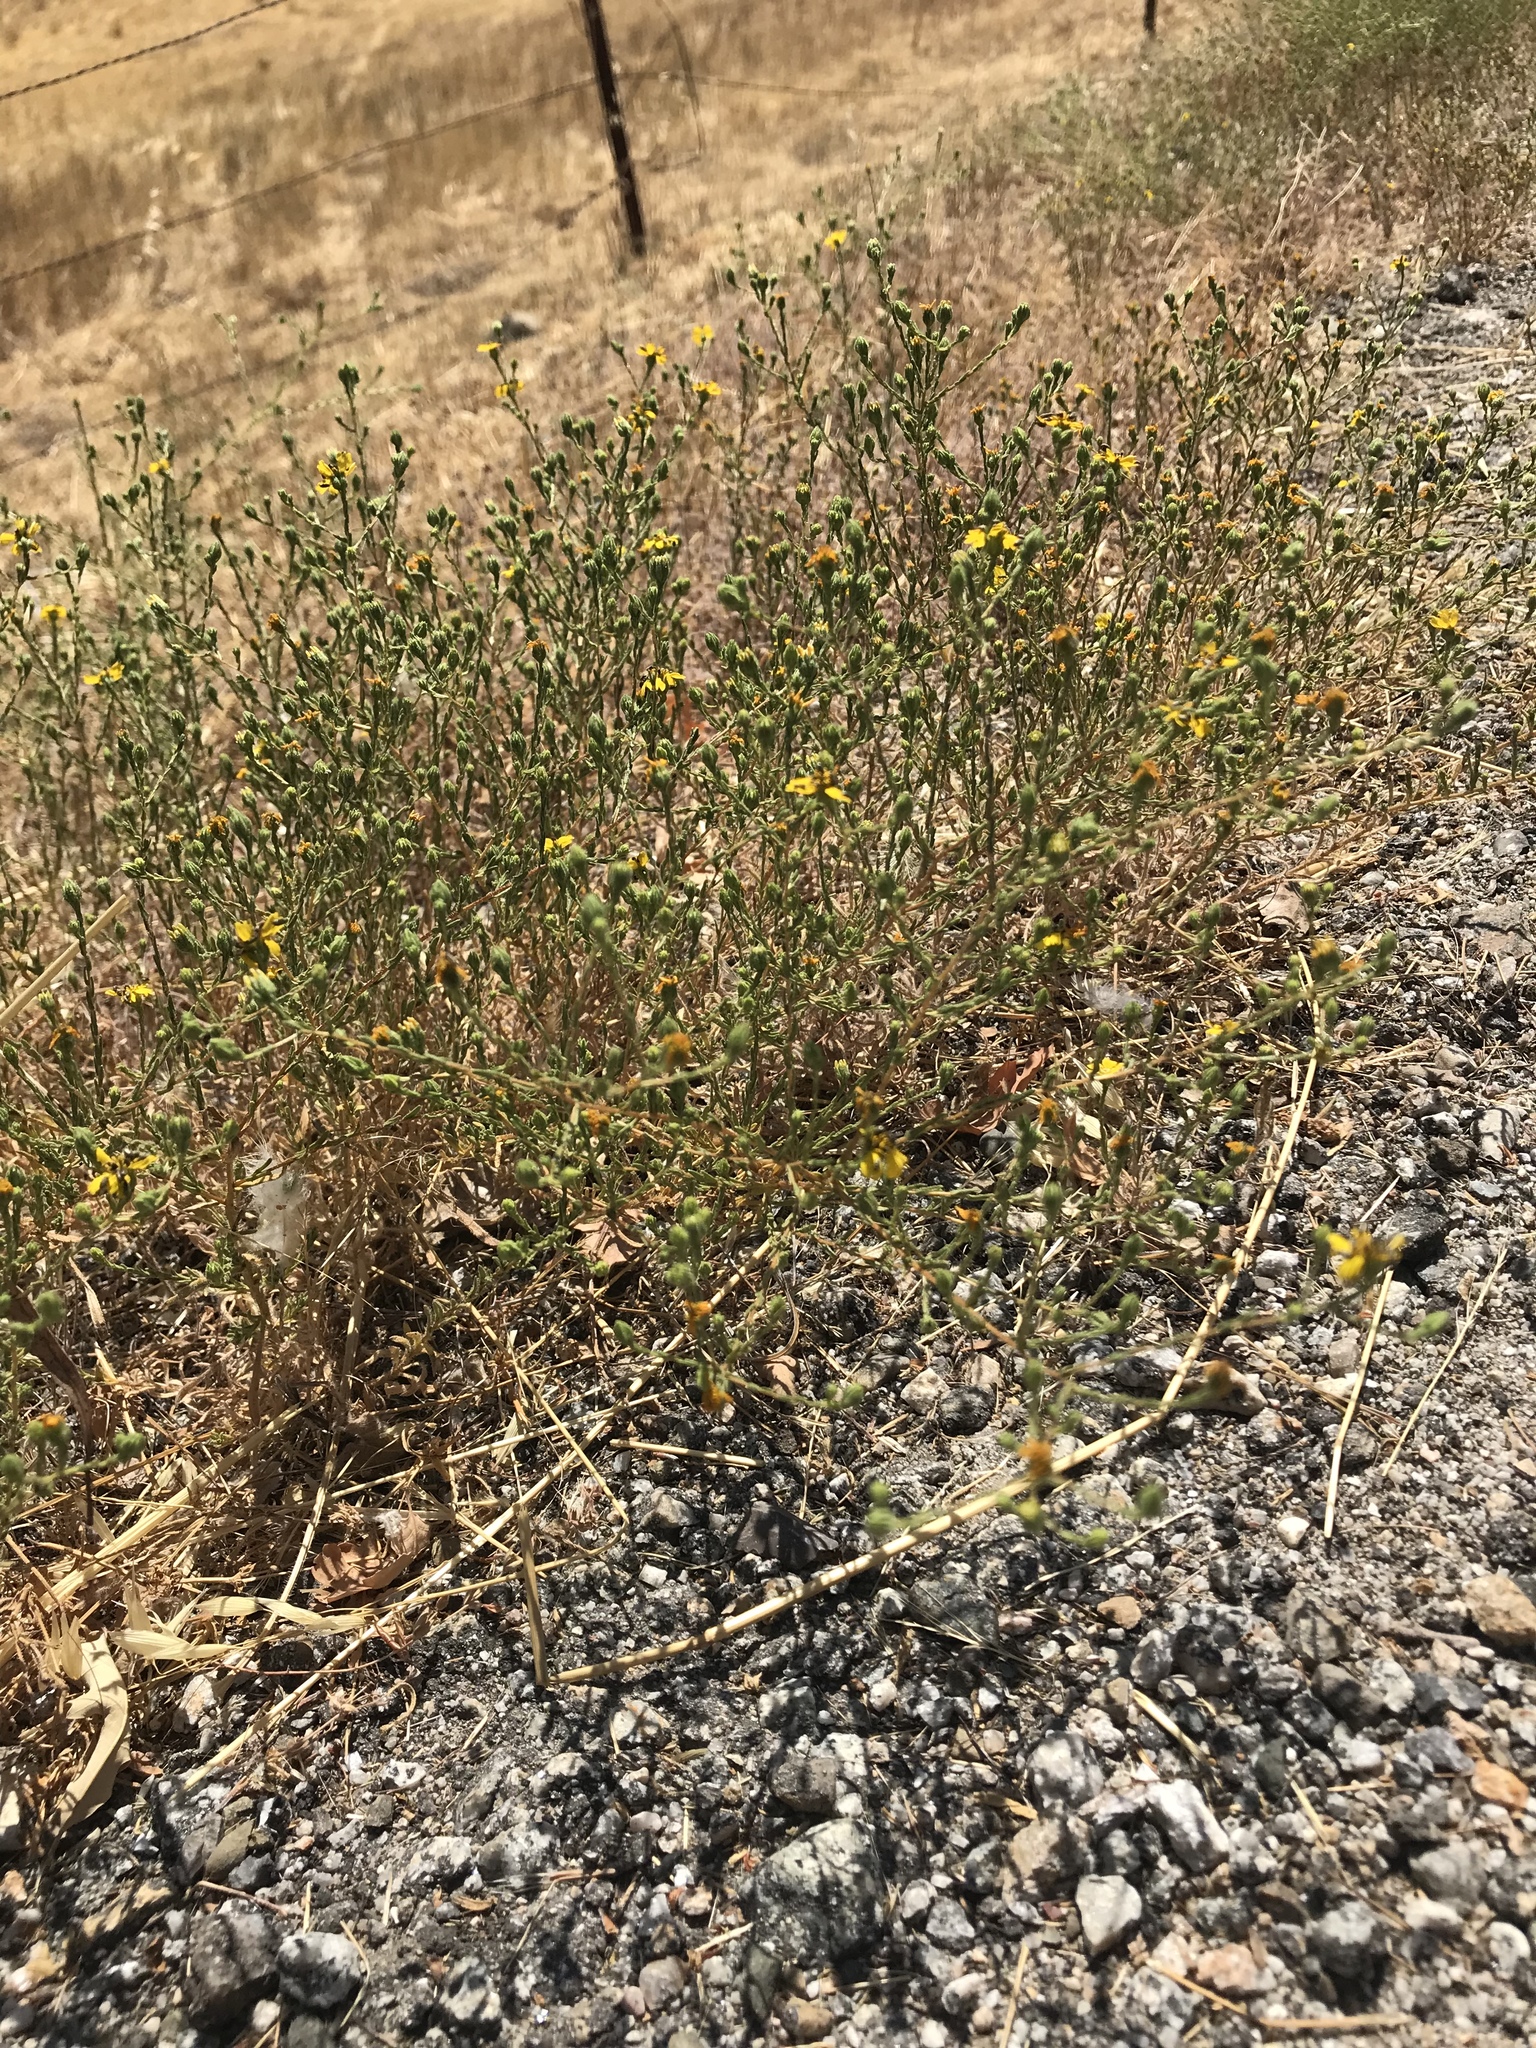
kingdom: Plantae
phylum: Tracheophyta
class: Magnoliopsida
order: Asterales
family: Asteraceae
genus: Deinandra
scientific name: Deinandra pentactis
